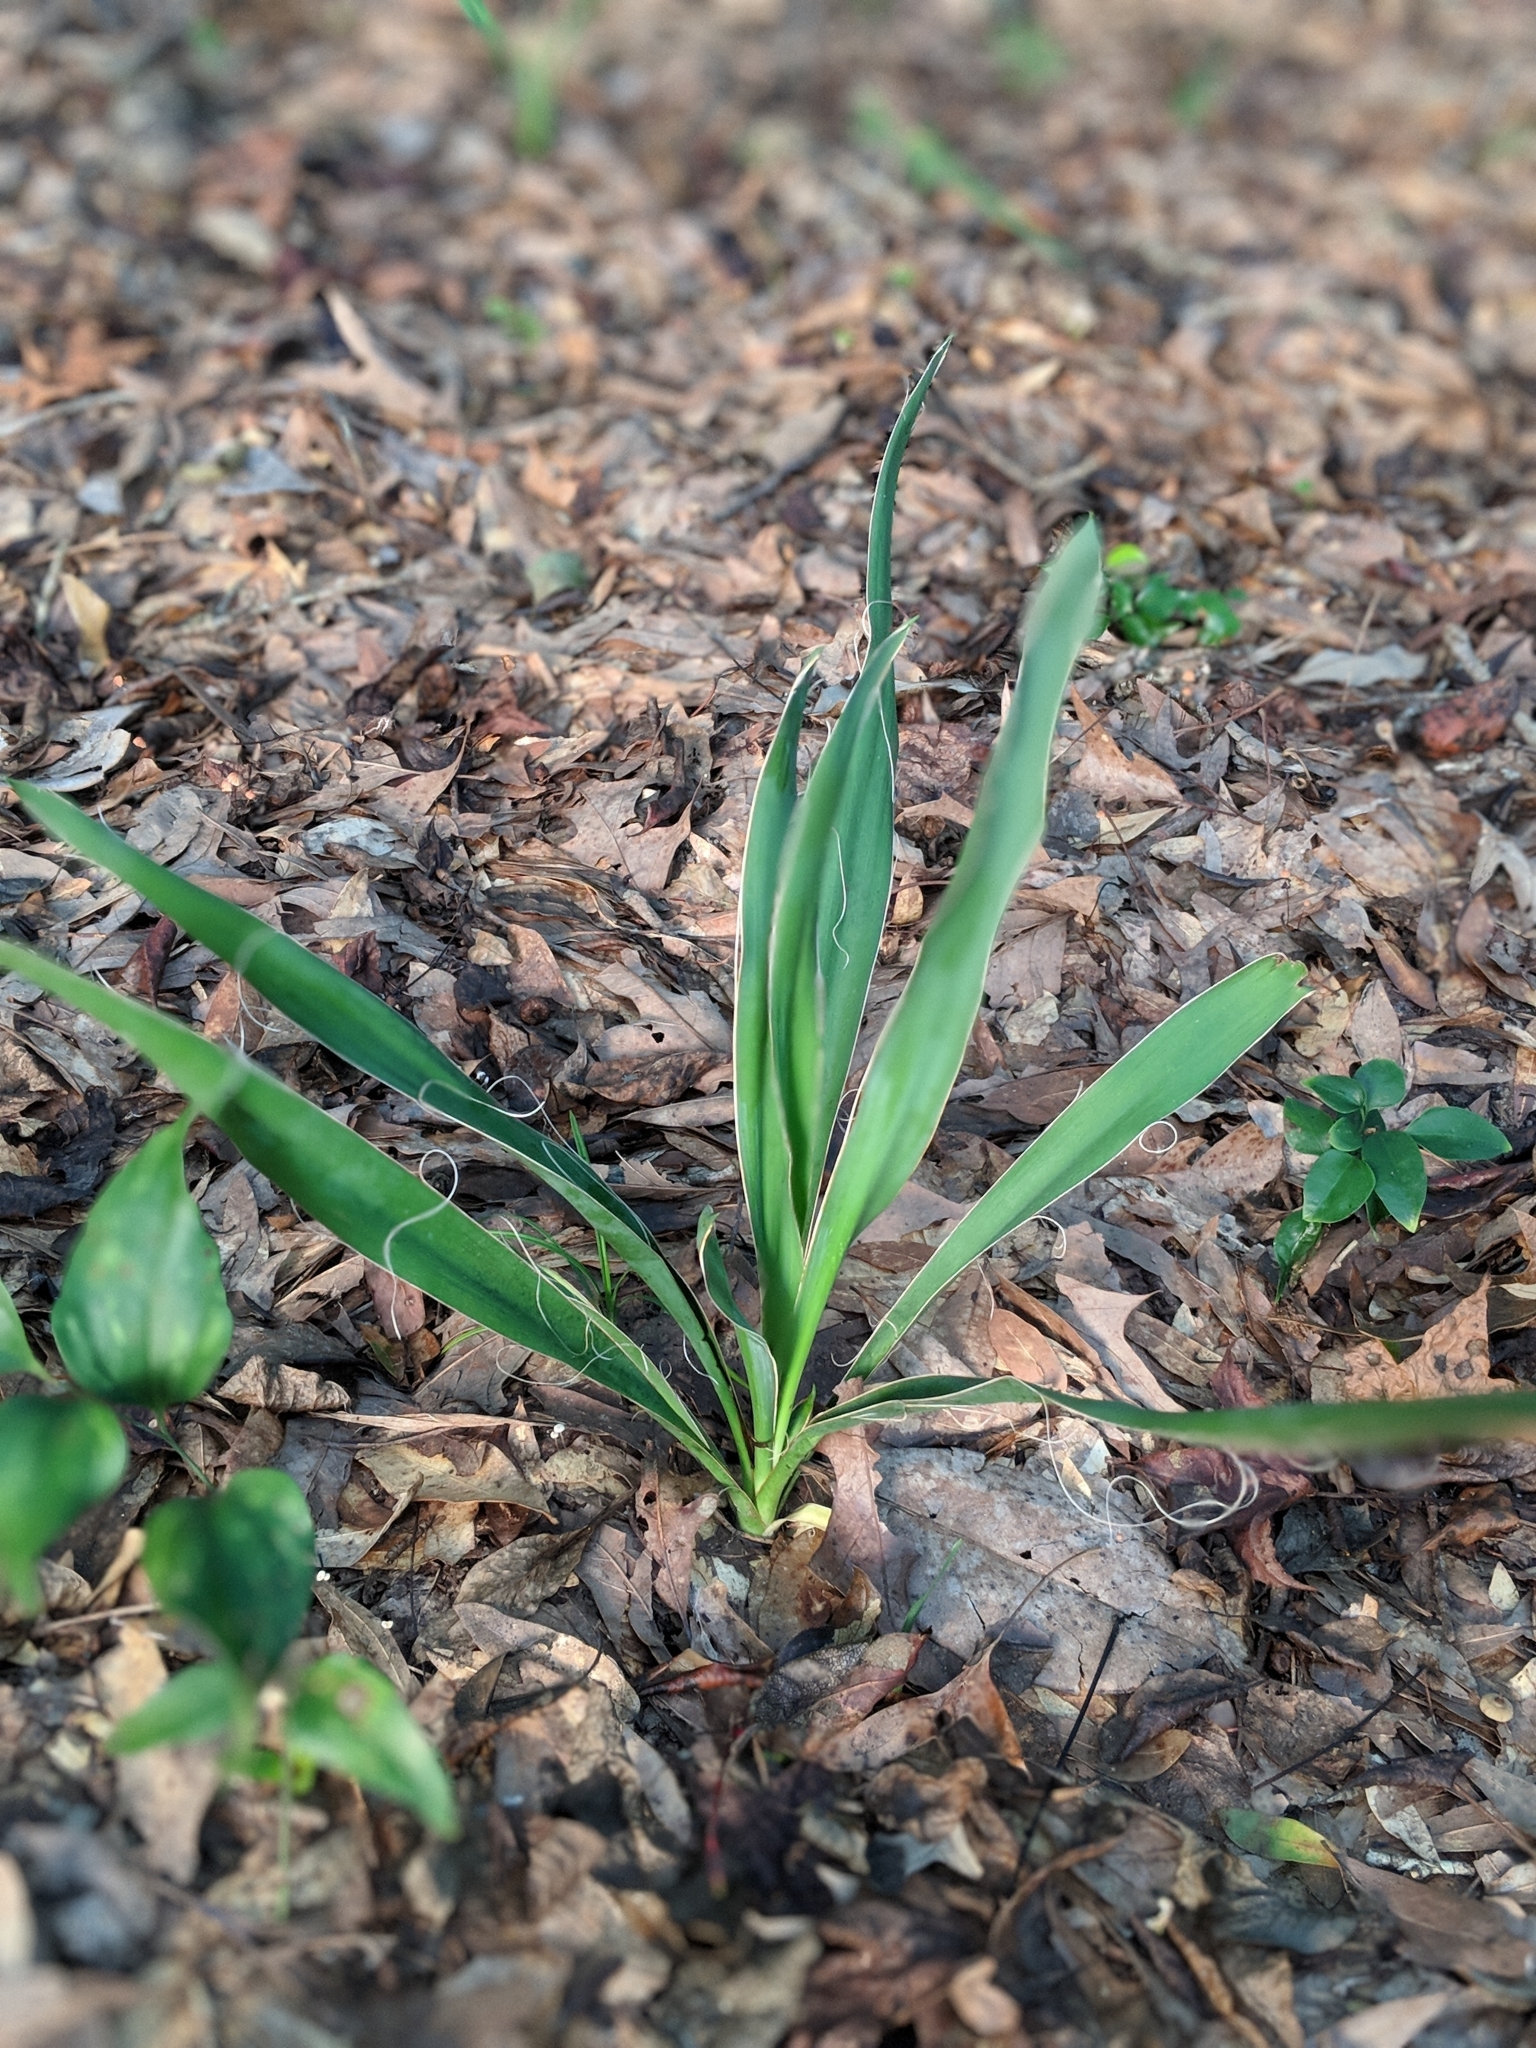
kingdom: Plantae
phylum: Tracheophyta
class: Liliopsida
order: Asparagales
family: Asparagaceae
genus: Yucca
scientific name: Yucca flaccida
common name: Adam's-needle
